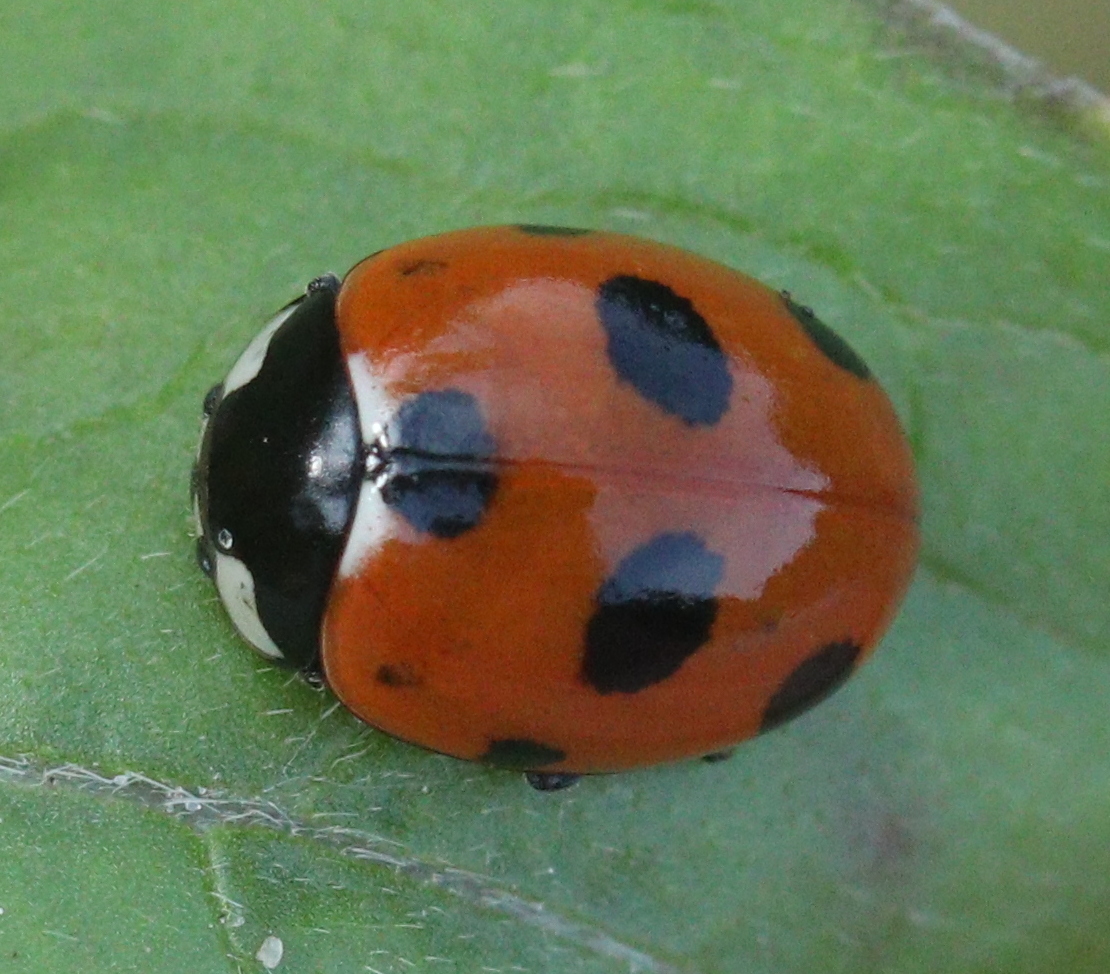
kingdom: Animalia
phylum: Arthropoda
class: Insecta
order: Coleoptera
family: Coccinellidae
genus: Coccinella
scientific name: Coccinella magnifica
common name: Scarce 7-spot ladybird
